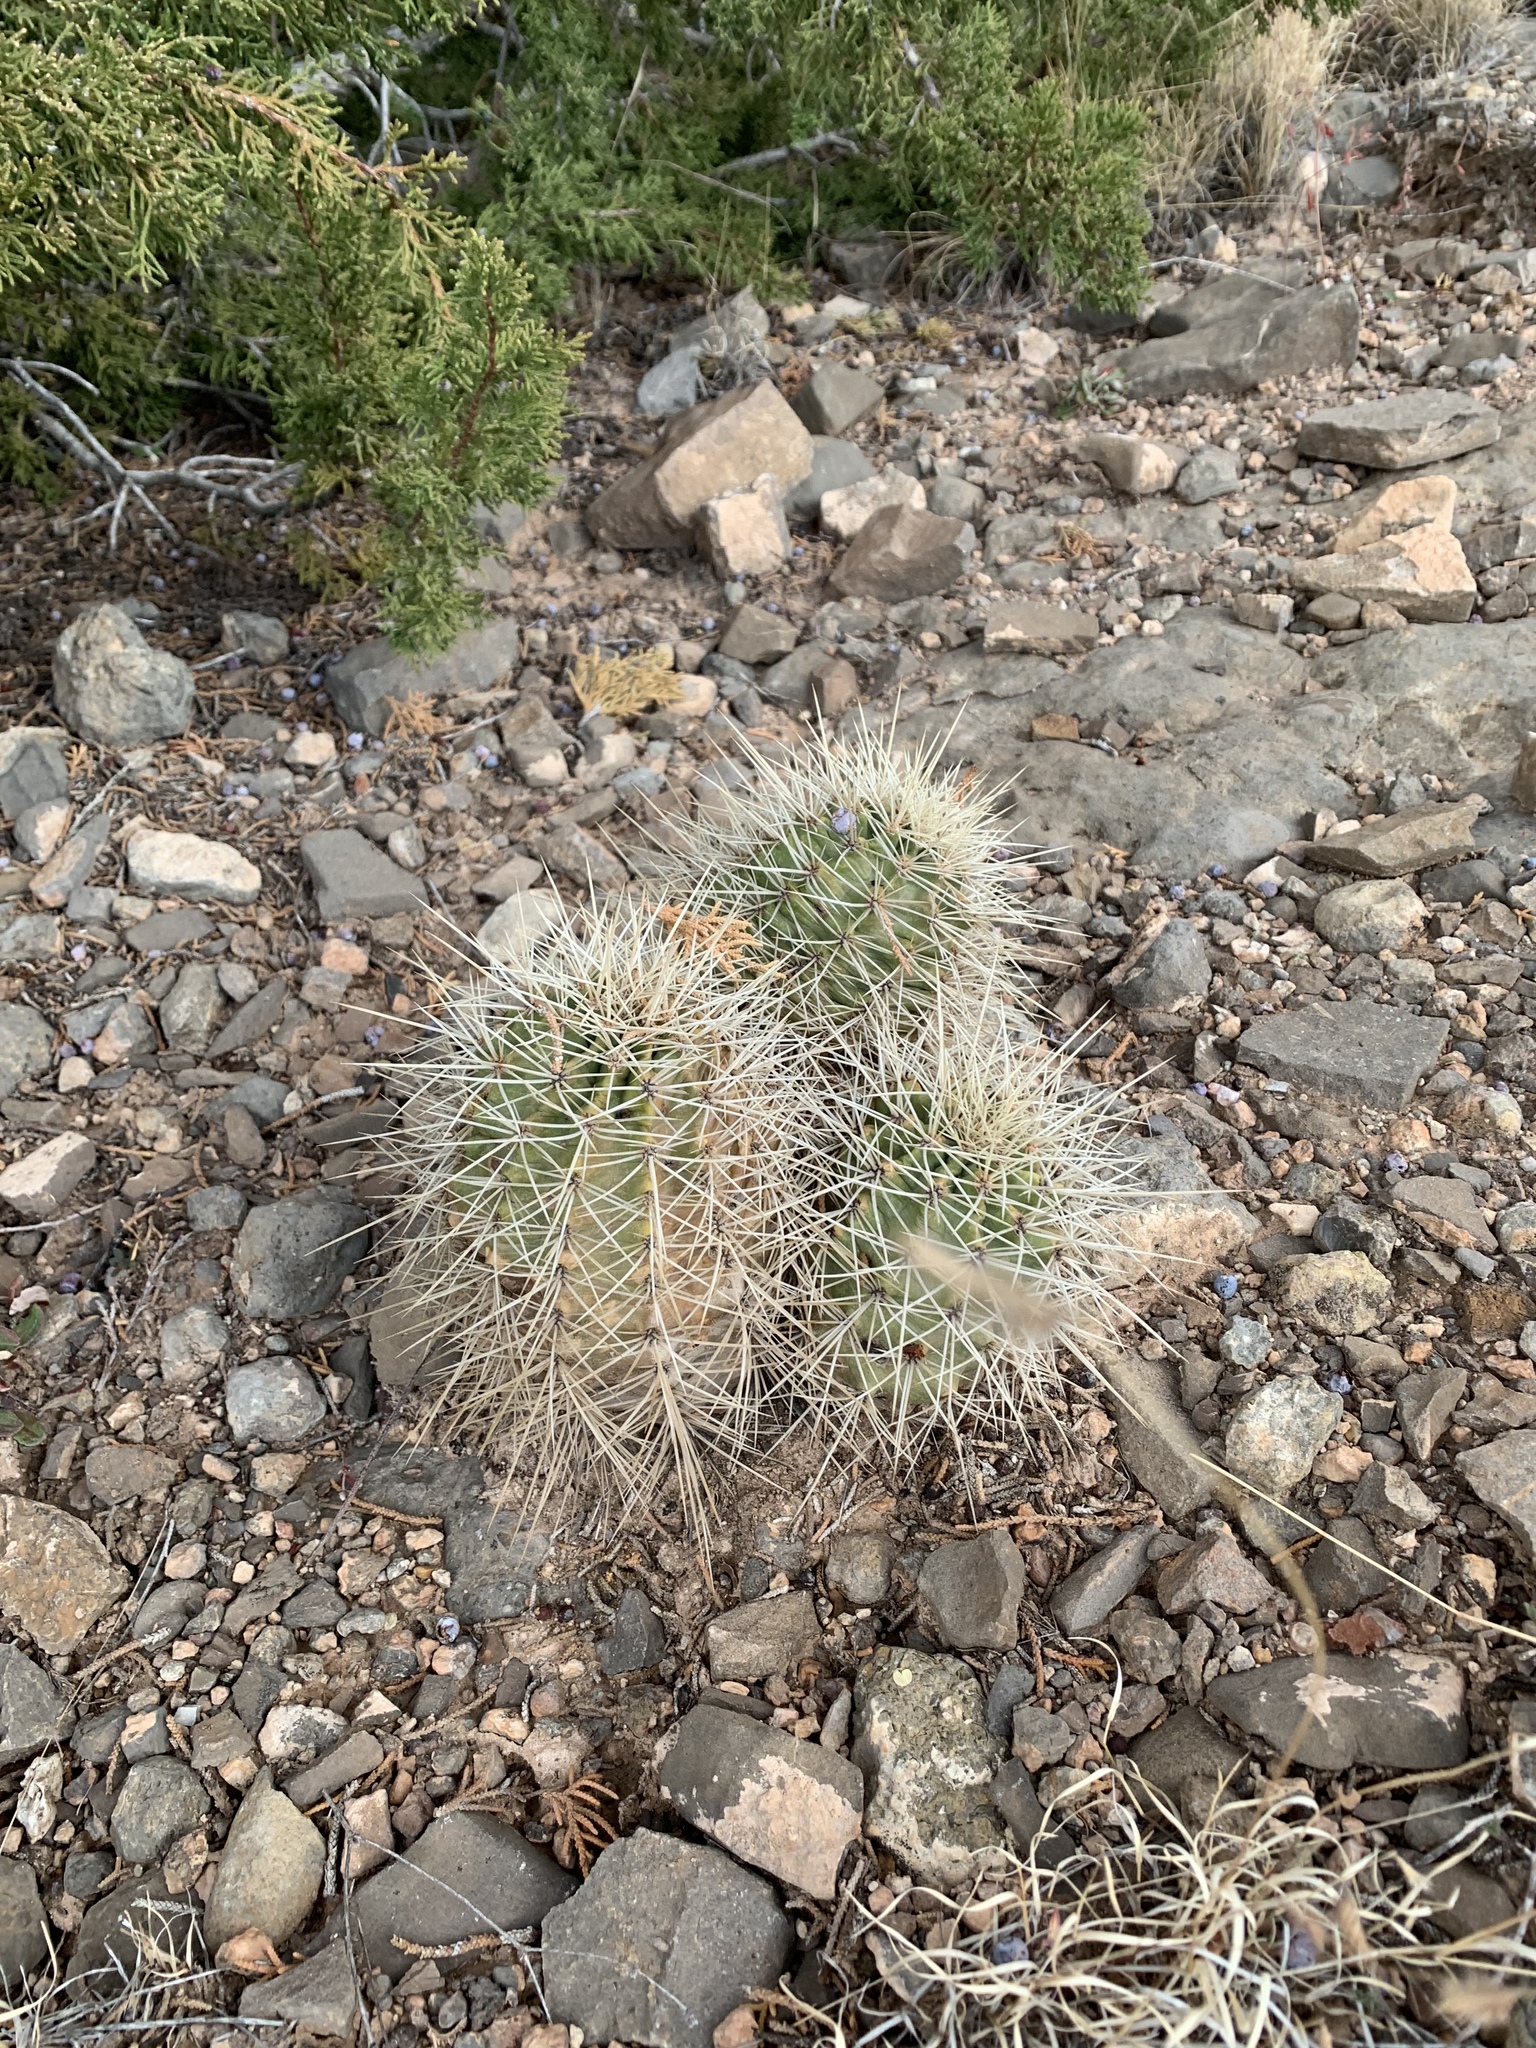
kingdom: Plantae
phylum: Tracheophyta
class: Magnoliopsida
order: Caryophyllales
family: Cactaceae
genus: Echinocereus
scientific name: Echinocereus coccineus
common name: Scarlet hedgehog cactus
